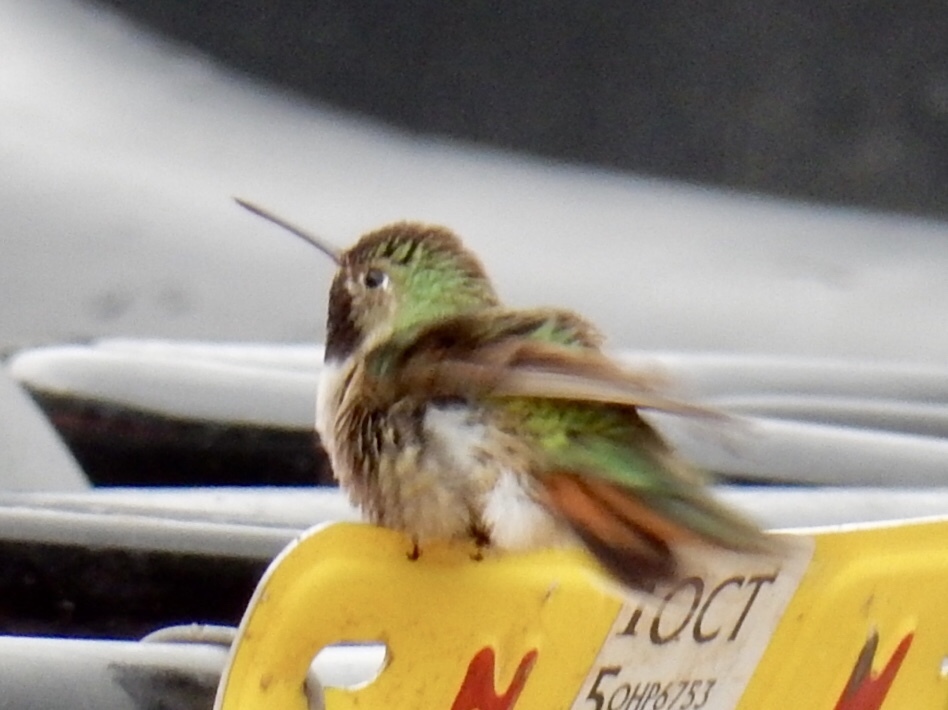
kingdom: Animalia
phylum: Chordata
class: Aves
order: Apodiformes
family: Trochilidae
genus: Selasphorus
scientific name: Selasphorus platycercus
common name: Broad-tailed hummingbird
